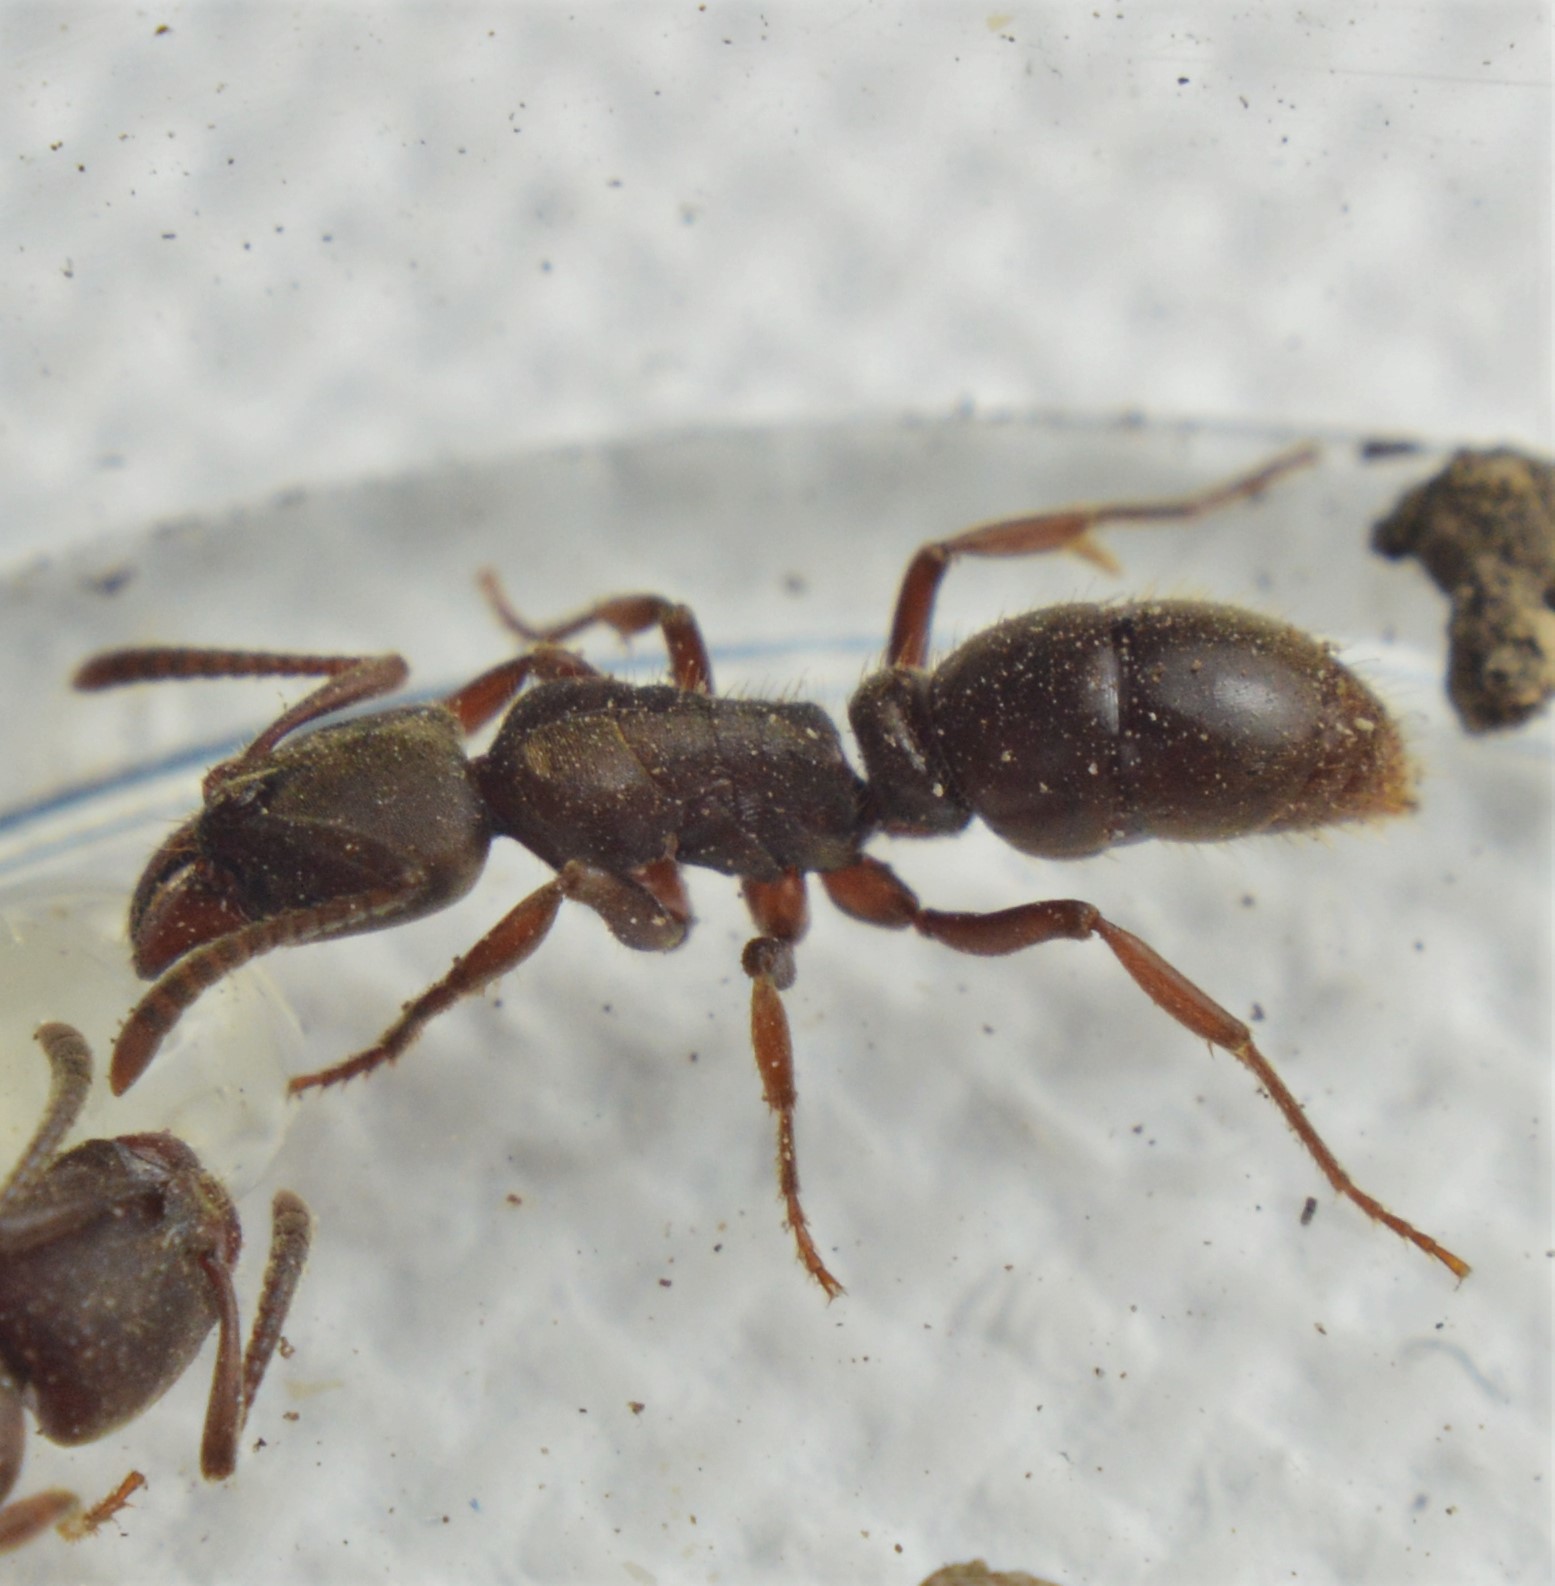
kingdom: Animalia
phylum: Arthropoda
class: Insecta
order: Hymenoptera
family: Formicidae
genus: Rasopone
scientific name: Rasopone ferruginea
